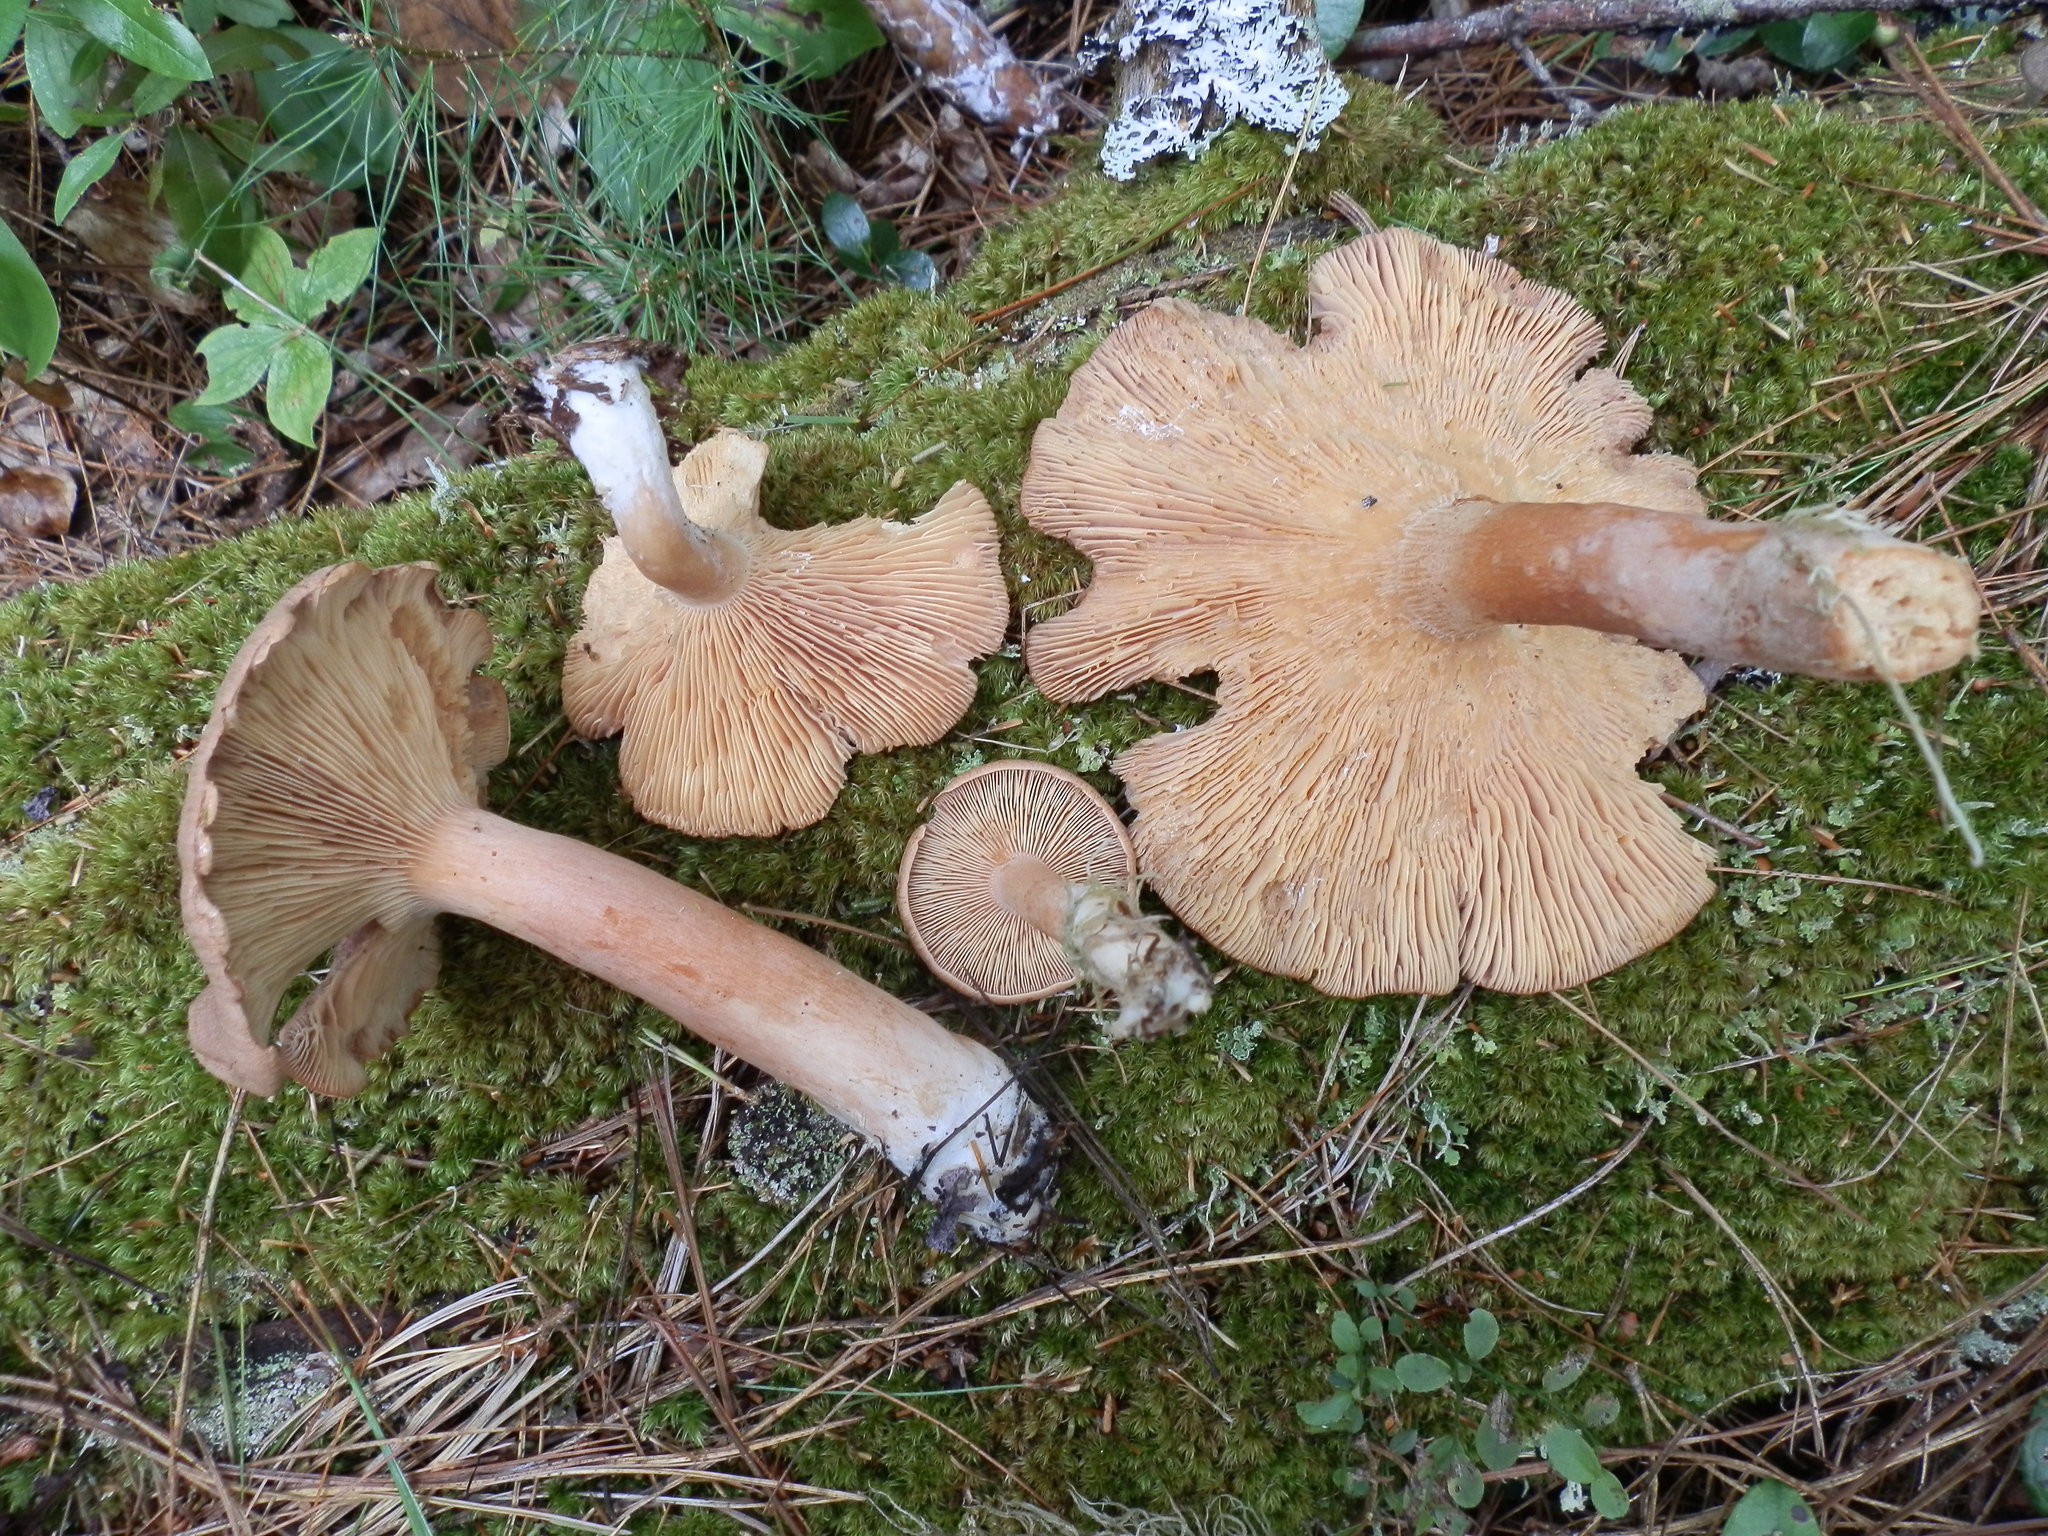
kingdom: Fungi
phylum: Basidiomycota
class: Agaricomycetes
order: Russulales
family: Russulaceae
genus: Lactarius
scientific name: Lactarius rufus
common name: Rufous milk-cap
